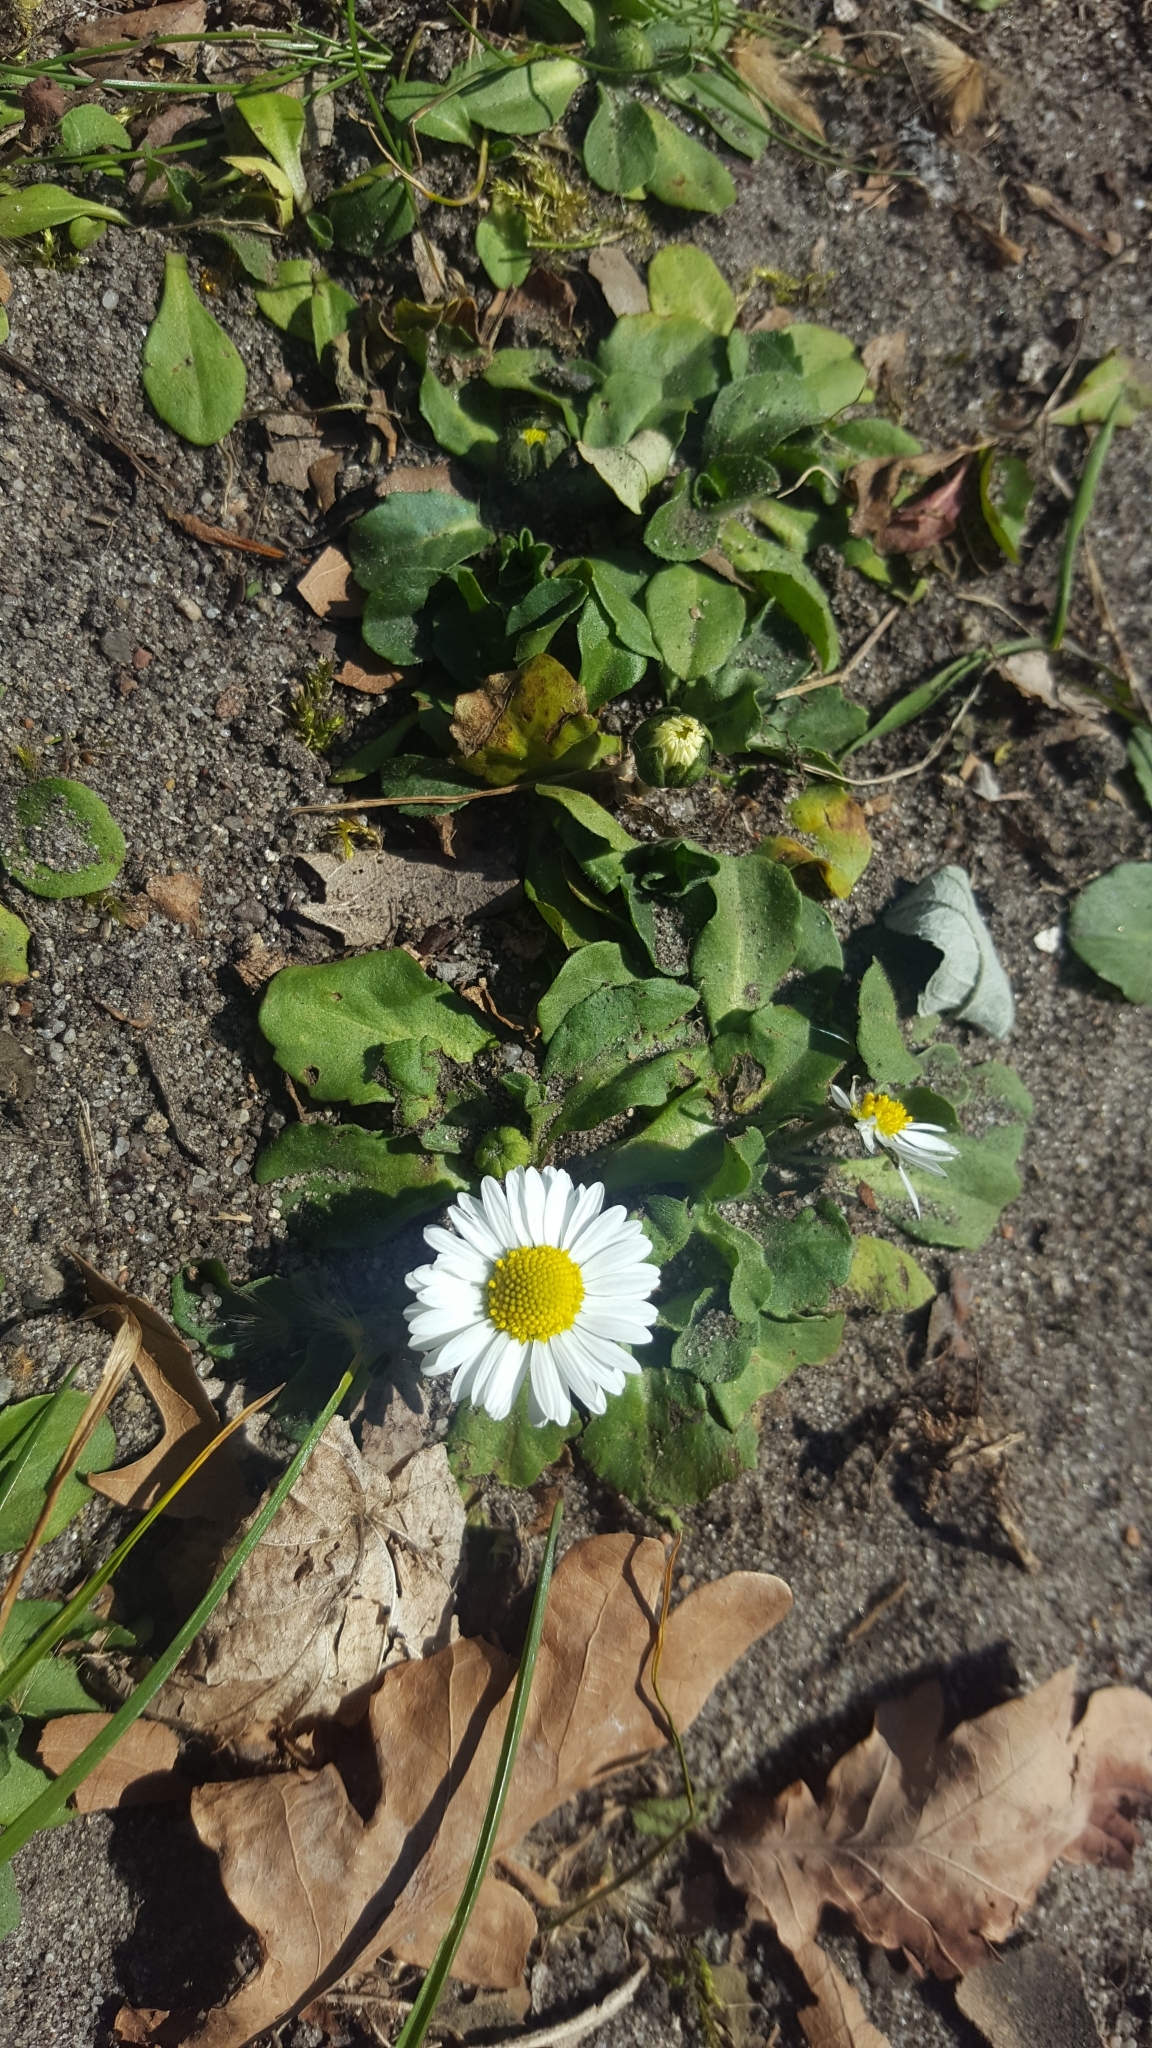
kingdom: Plantae
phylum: Tracheophyta
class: Magnoliopsida
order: Asterales
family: Asteraceae
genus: Bellis
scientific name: Bellis perennis
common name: Lawndaisy
